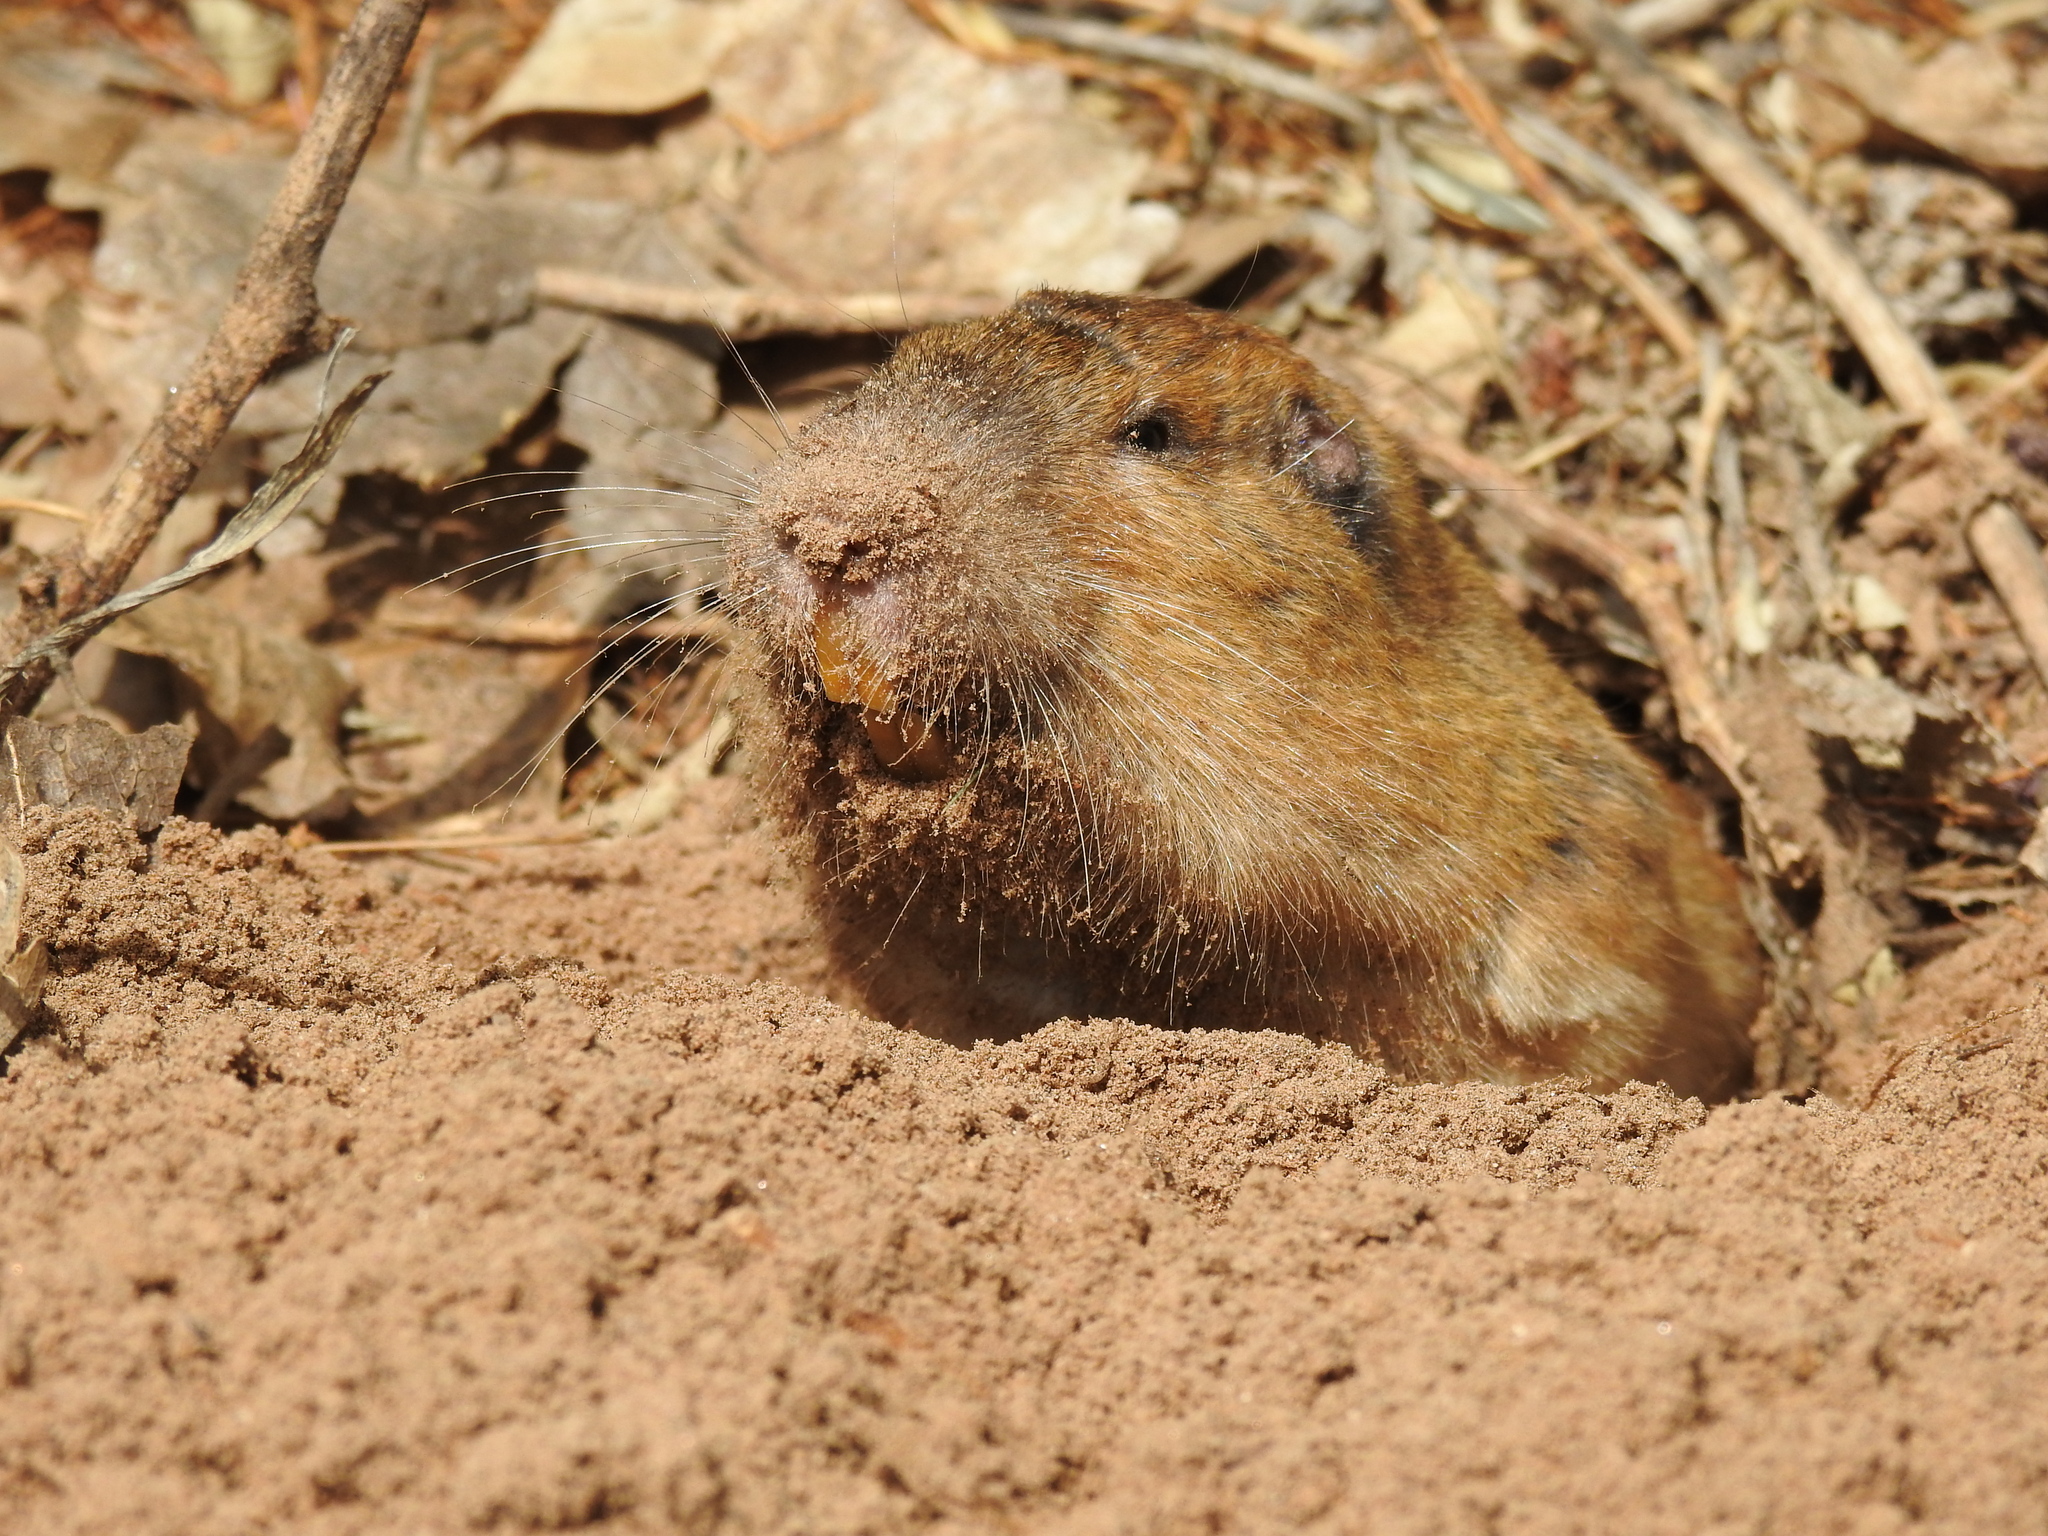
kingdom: Animalia
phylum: Chordata
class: Mammalia
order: Rodentia
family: Geomyidae
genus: Thomomys
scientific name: Thomomys bottae
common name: Botta's pocket gopher
